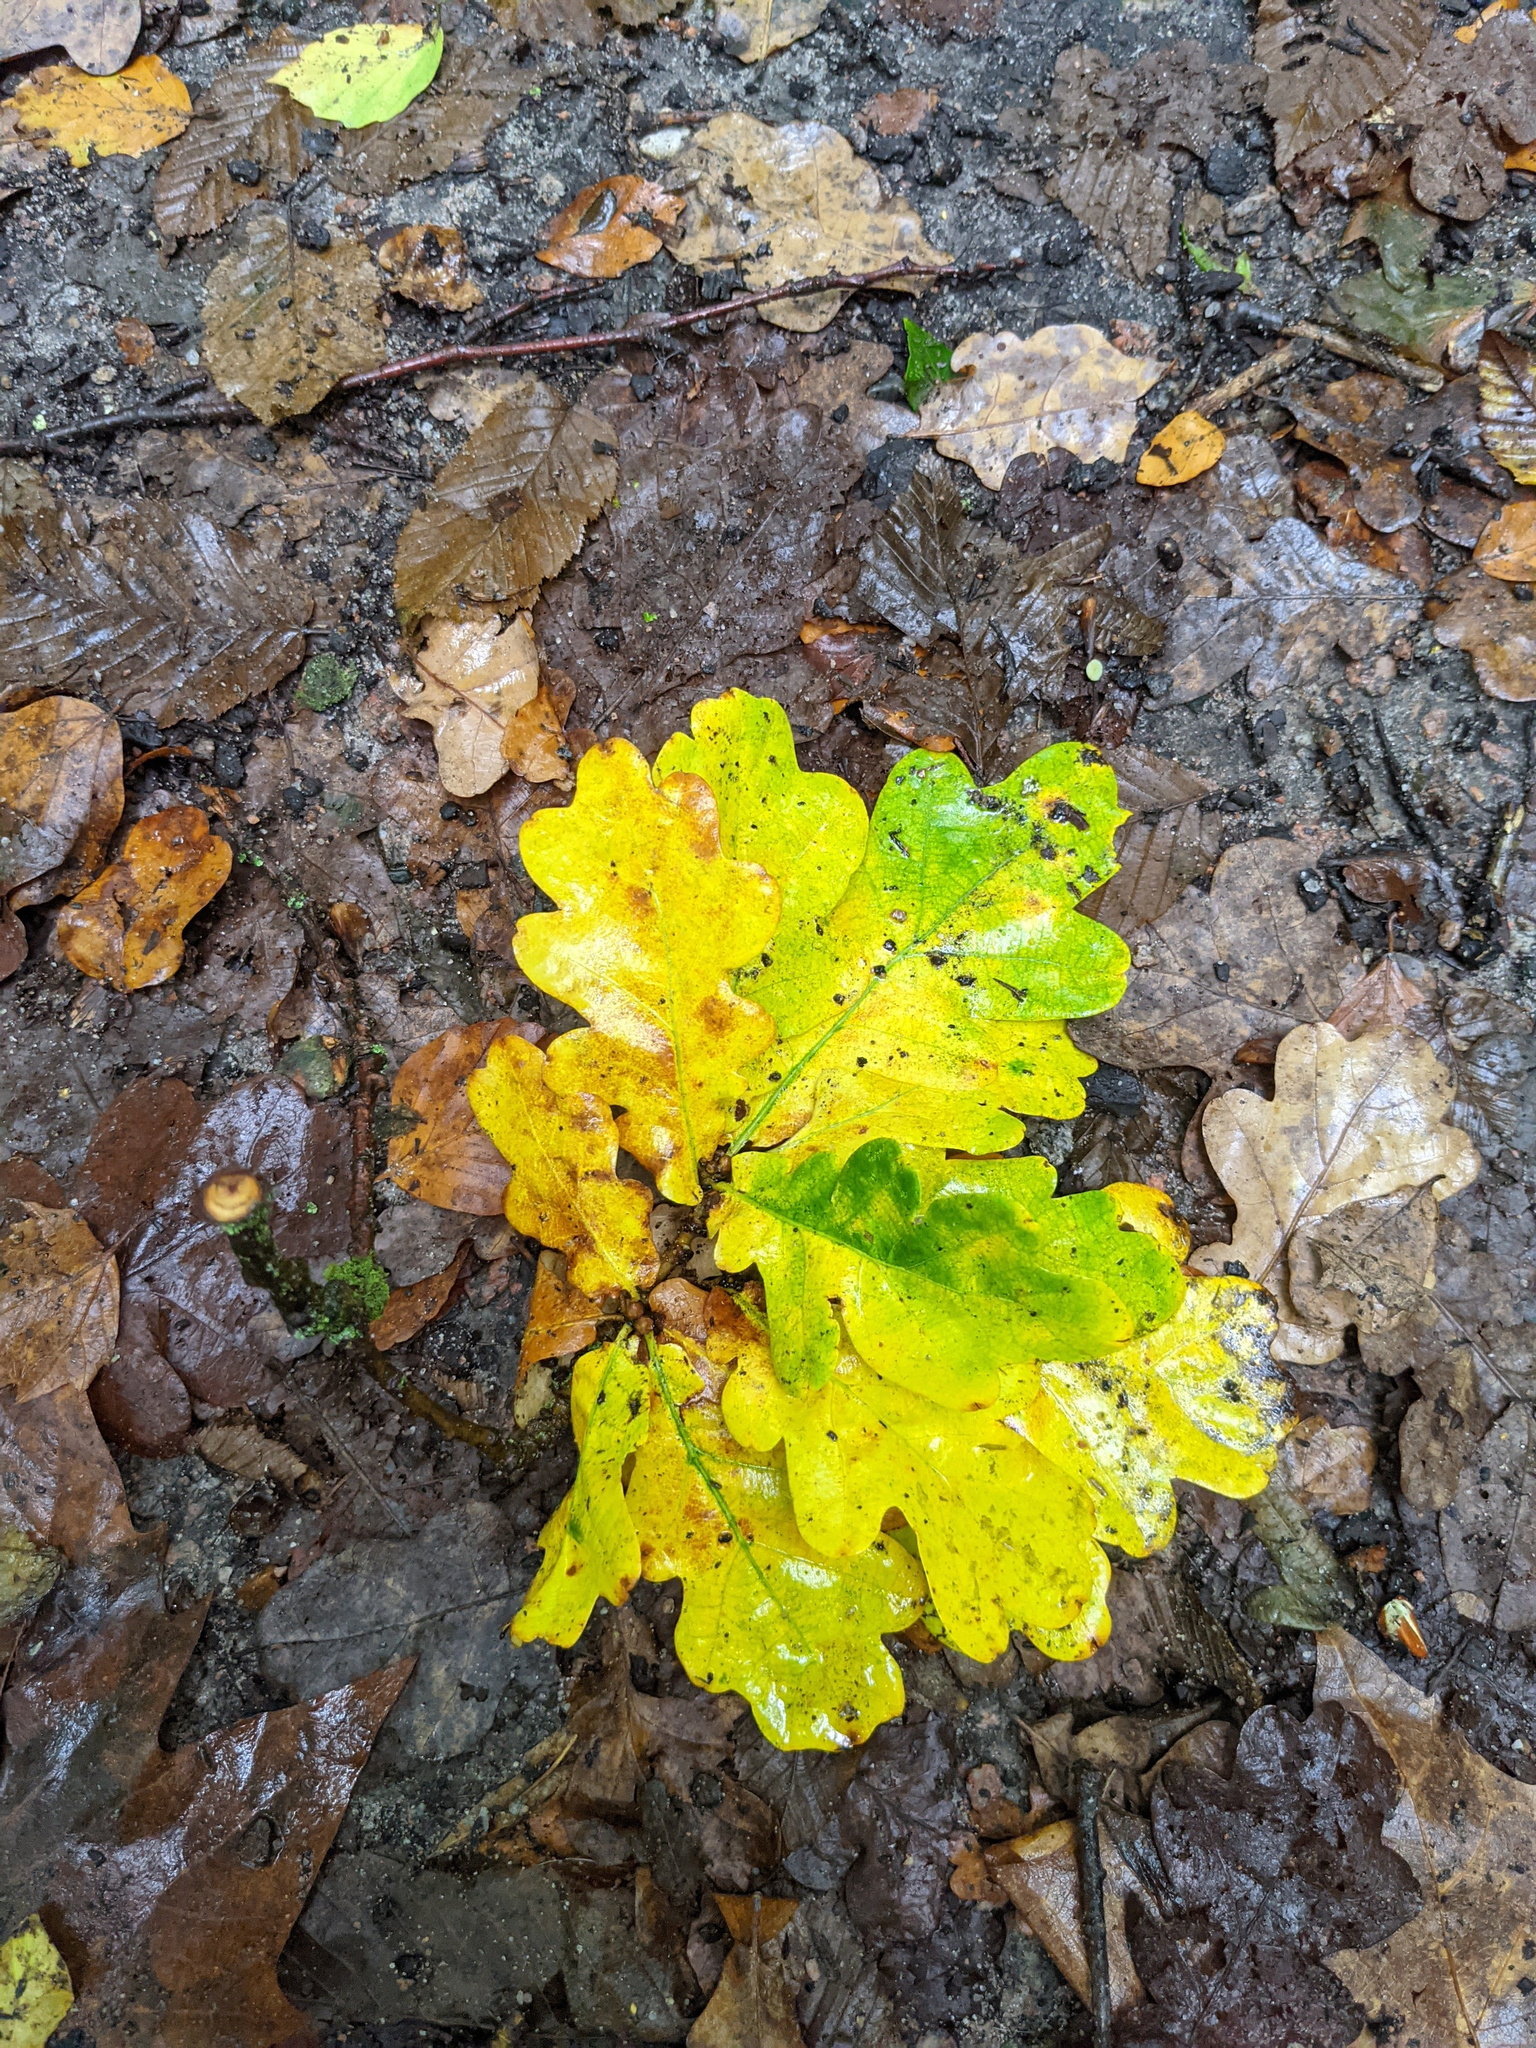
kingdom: Plantae
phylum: Tracheophyta
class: Magnoliopsida
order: Fagales
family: Fagaceae
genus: Quercus
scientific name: Quercus robur
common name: Pedunculate oak
